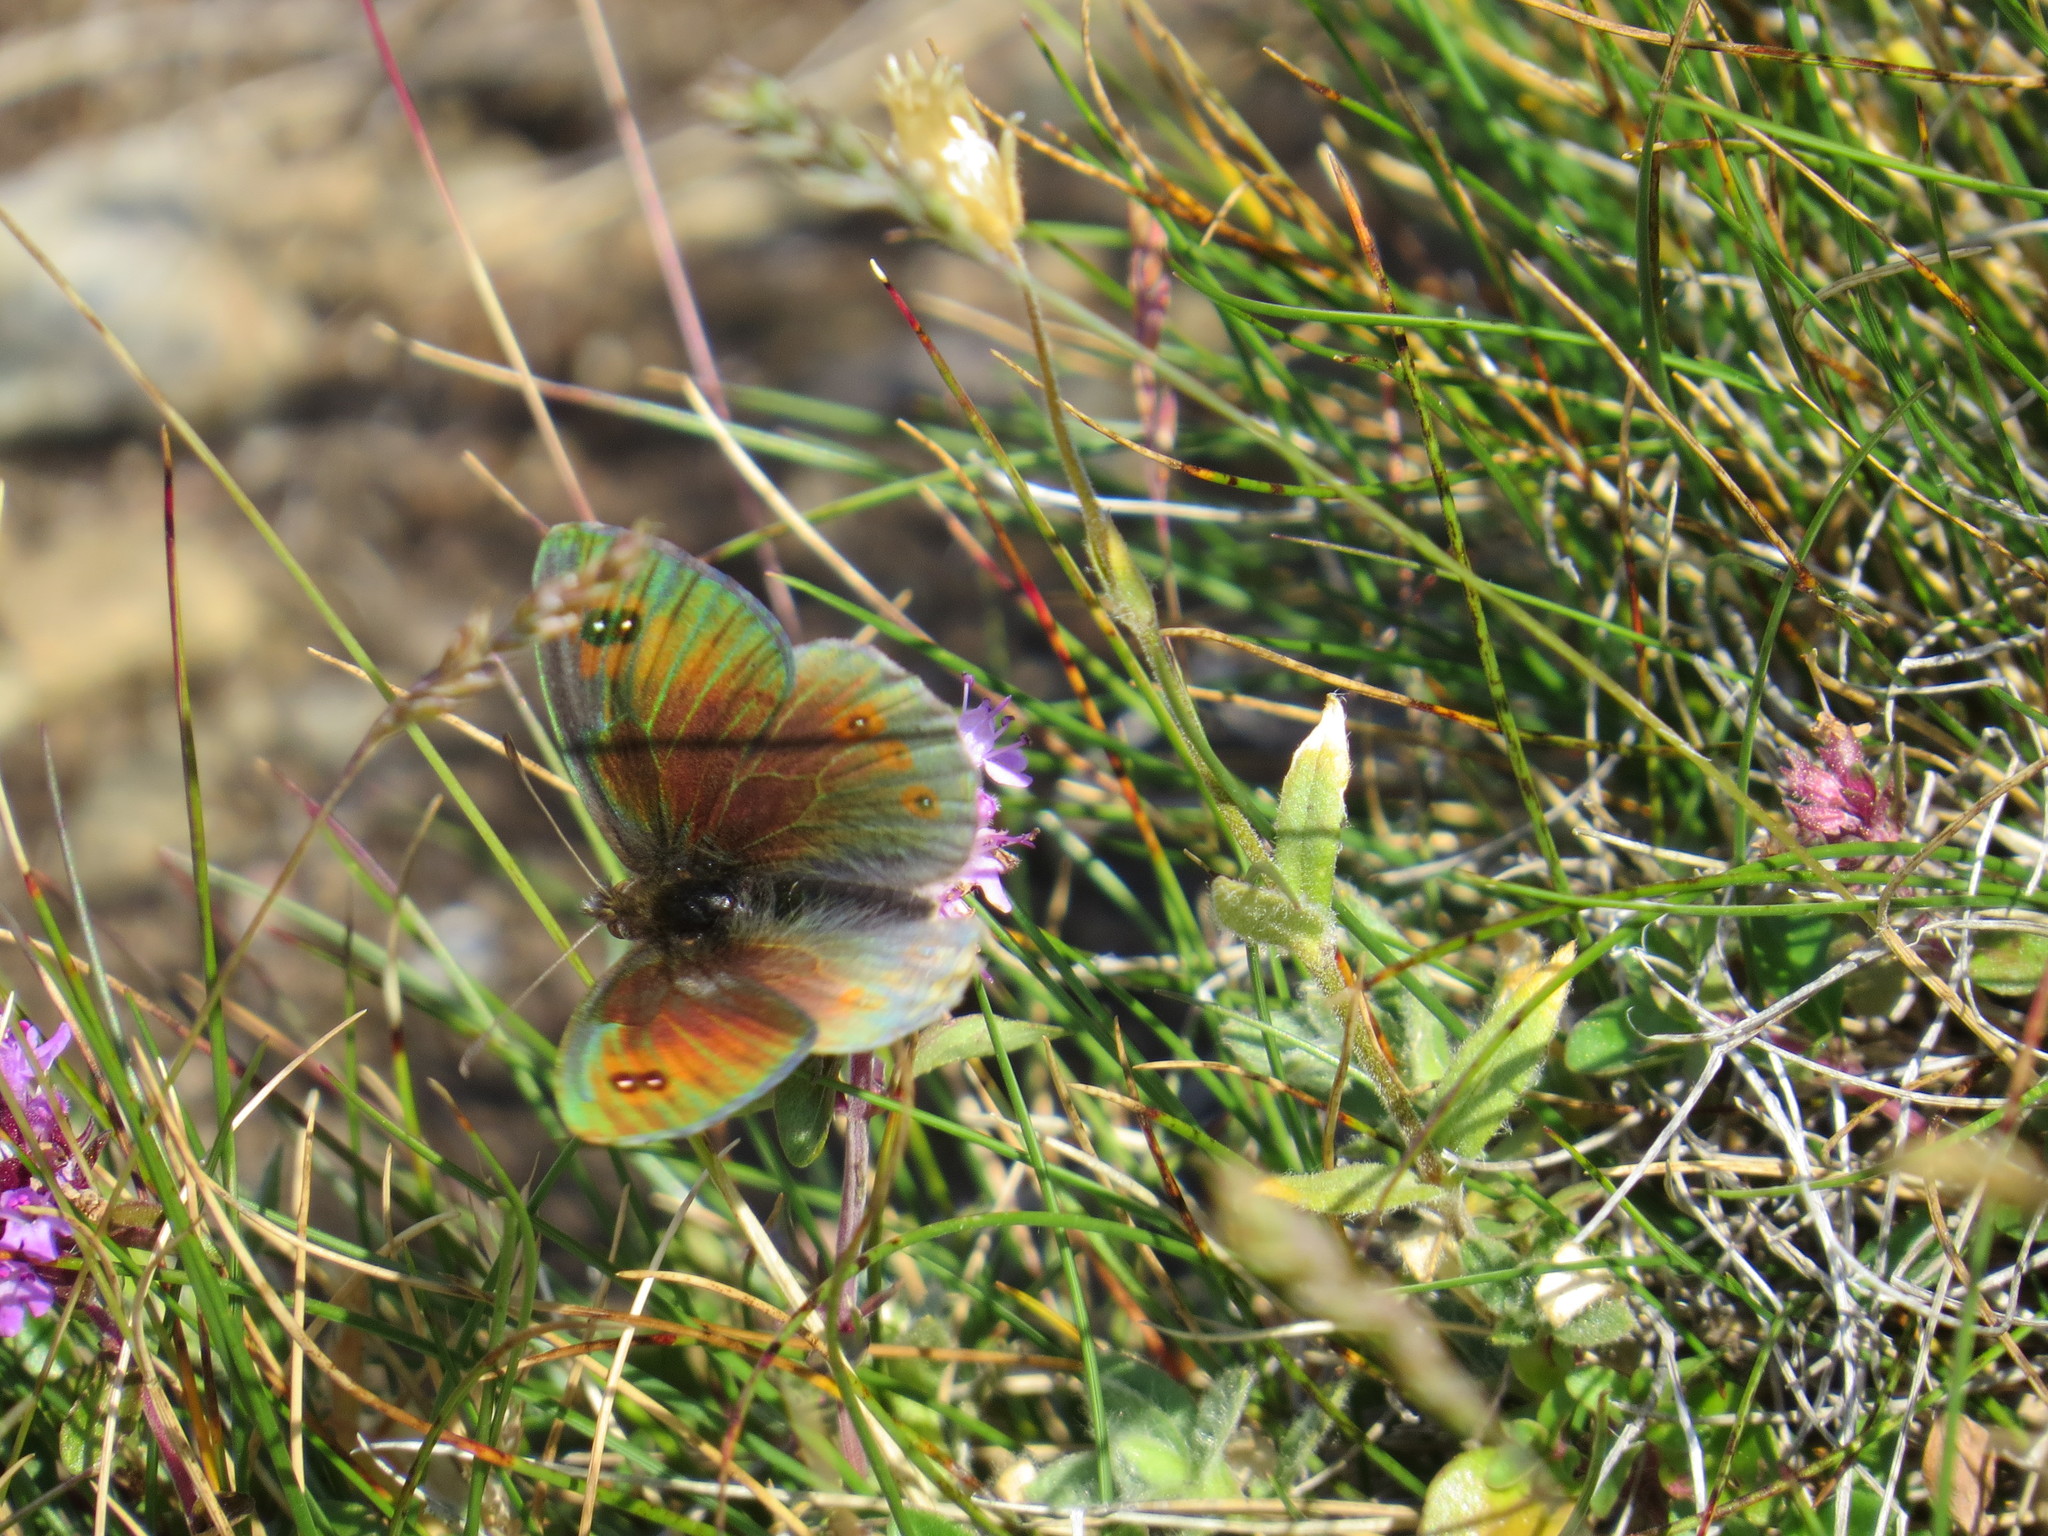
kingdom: Animalia
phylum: Arthropoda
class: Insecta
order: Lepidoptera
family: Nymphalidae
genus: Erebia
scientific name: Erebia cassioides
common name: Common brassy ringlet
